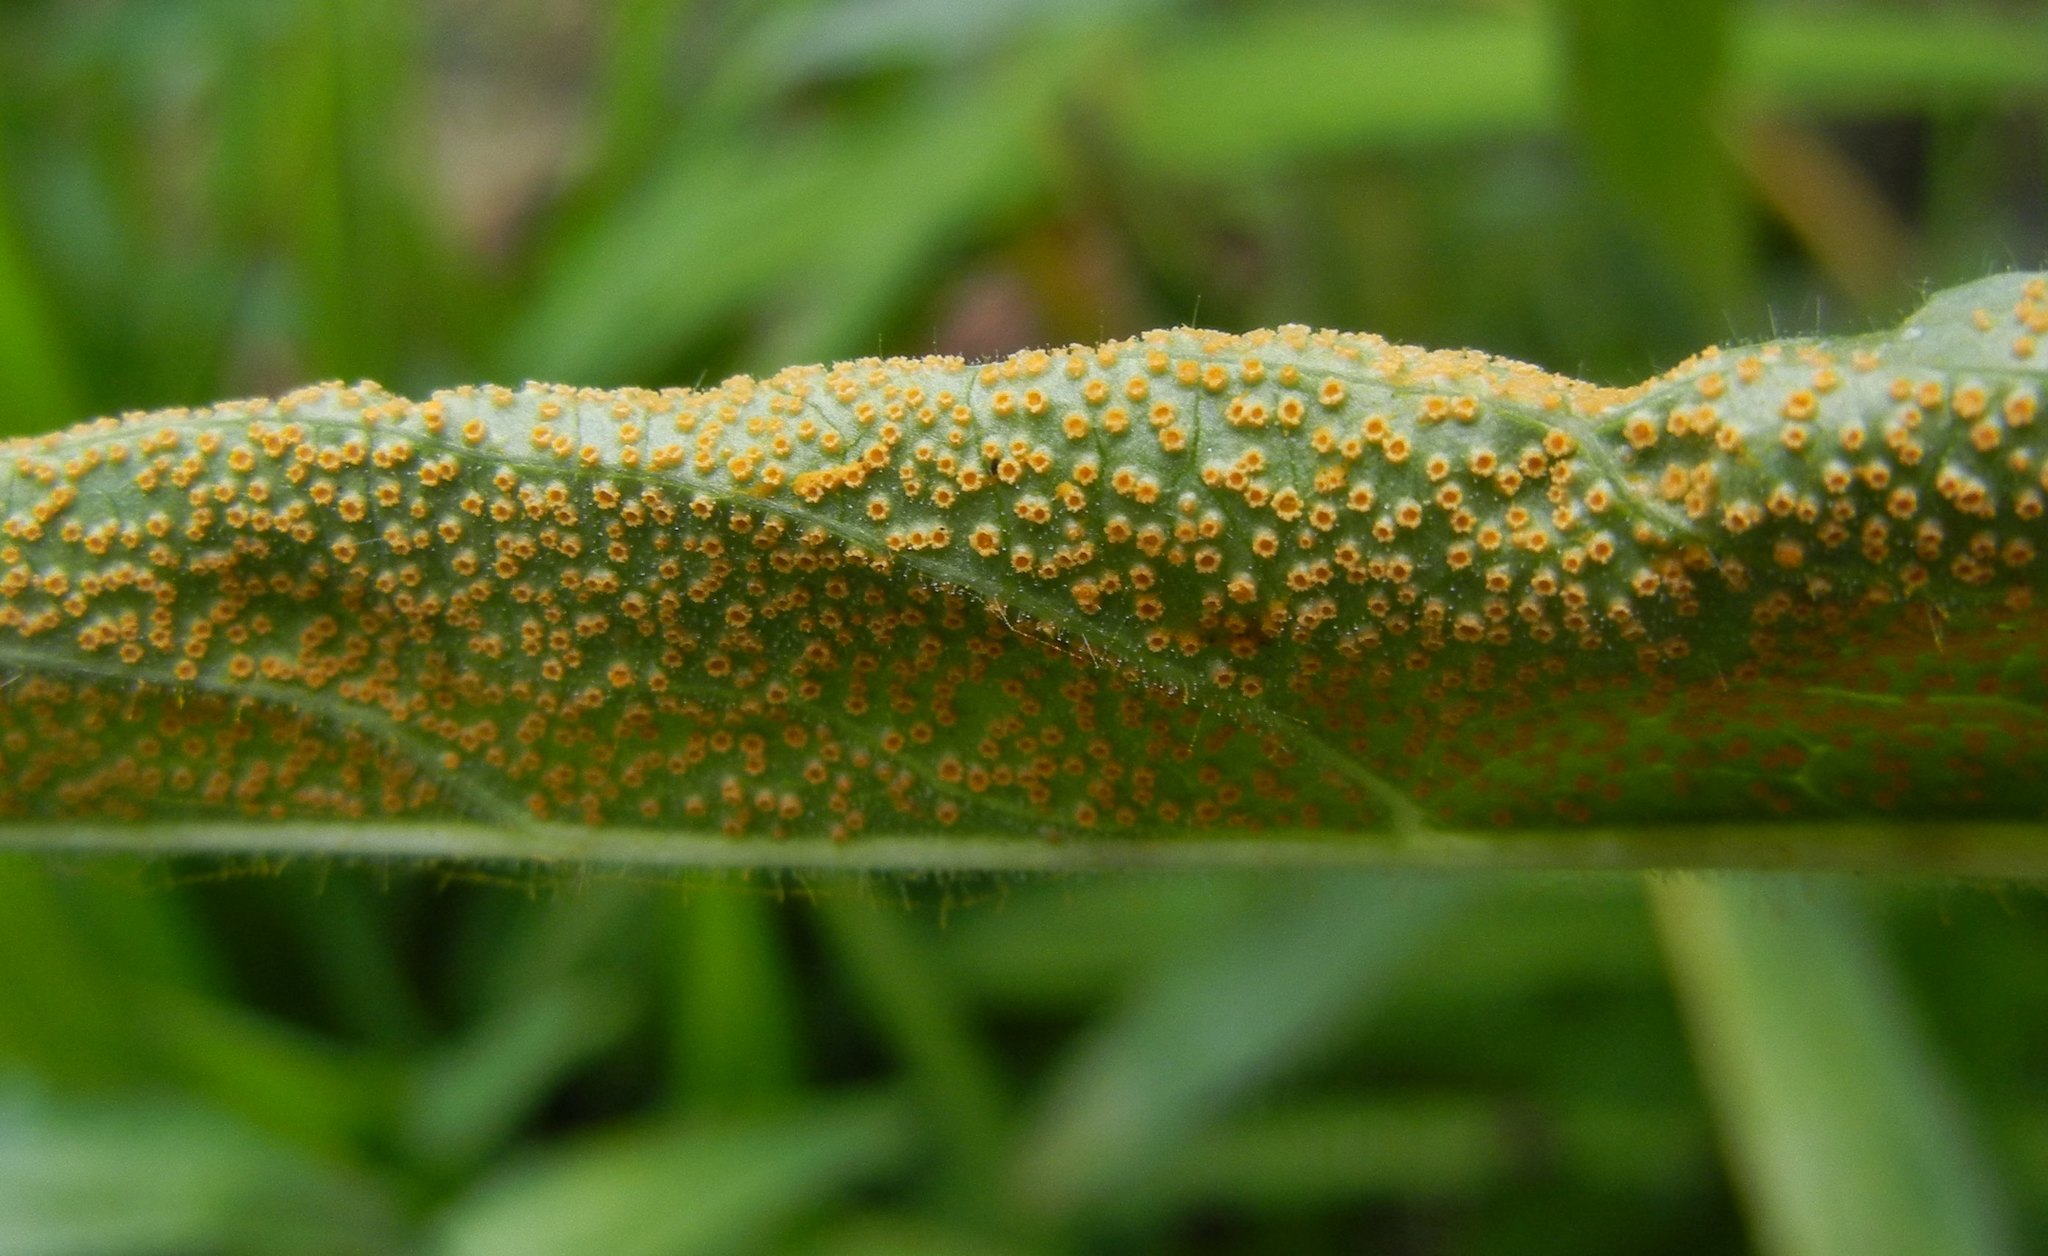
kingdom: Fungi
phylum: Basidiomycota
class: Pucciniomycetes
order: Pucciniales
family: Pucciniaceae
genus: Puccinia
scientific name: Puccinia pulverulenta
